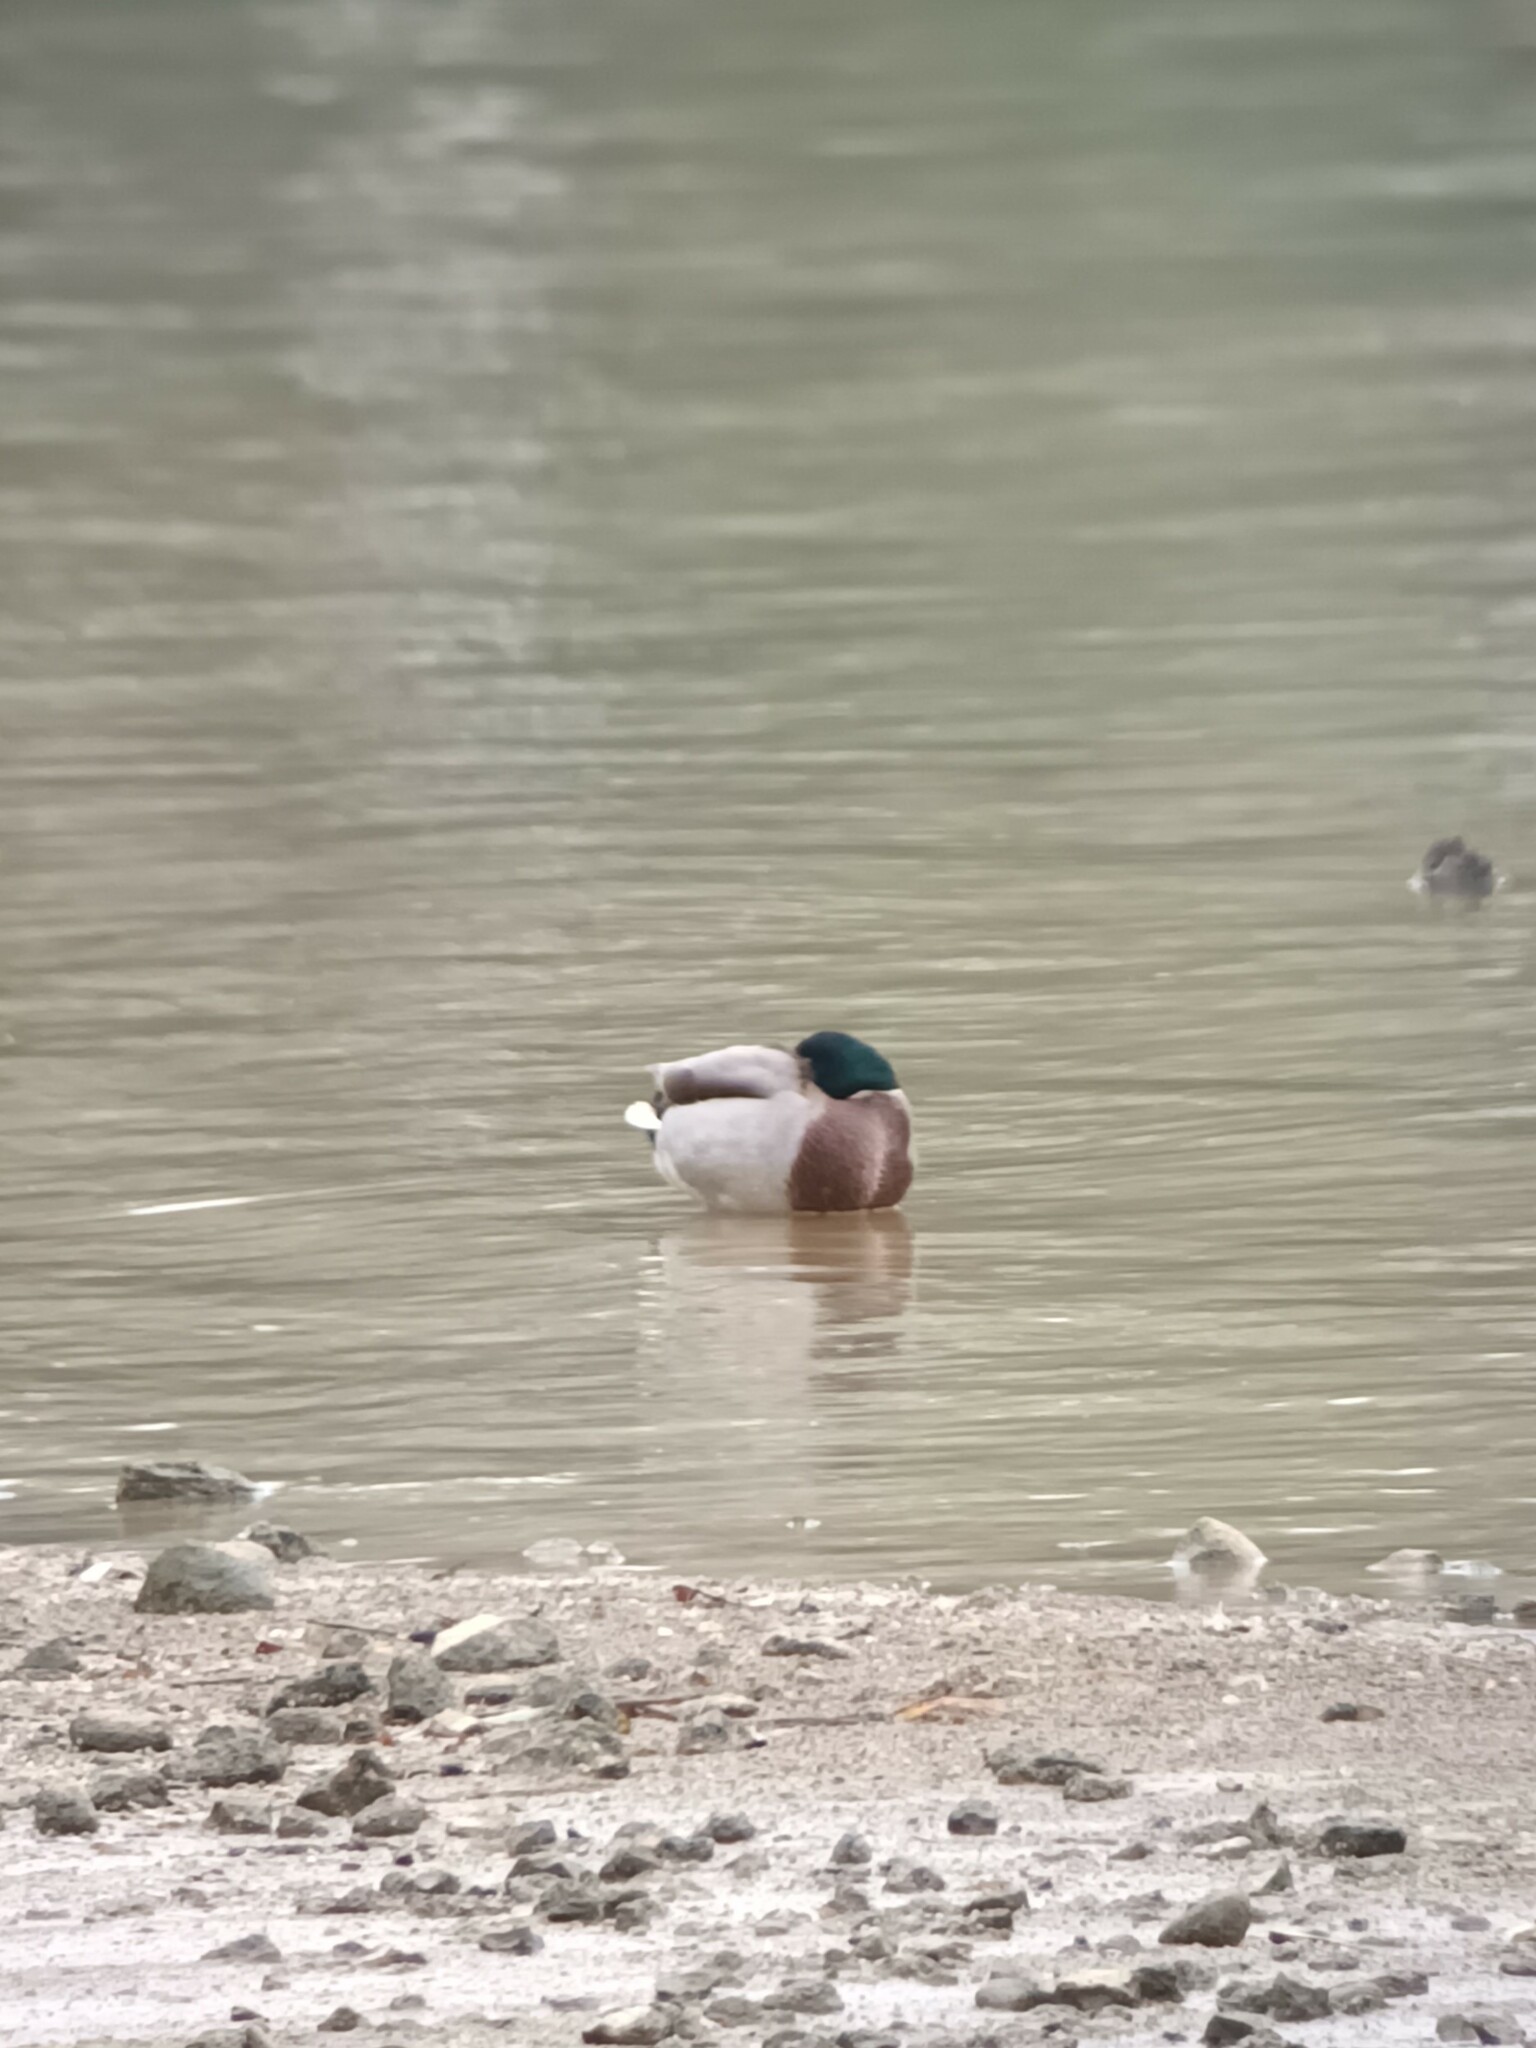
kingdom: Animalia
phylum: Chordata
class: Aves
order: Anseriformes
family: Anatidae
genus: Anas
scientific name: Anas platyrhynchos
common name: Mallard
